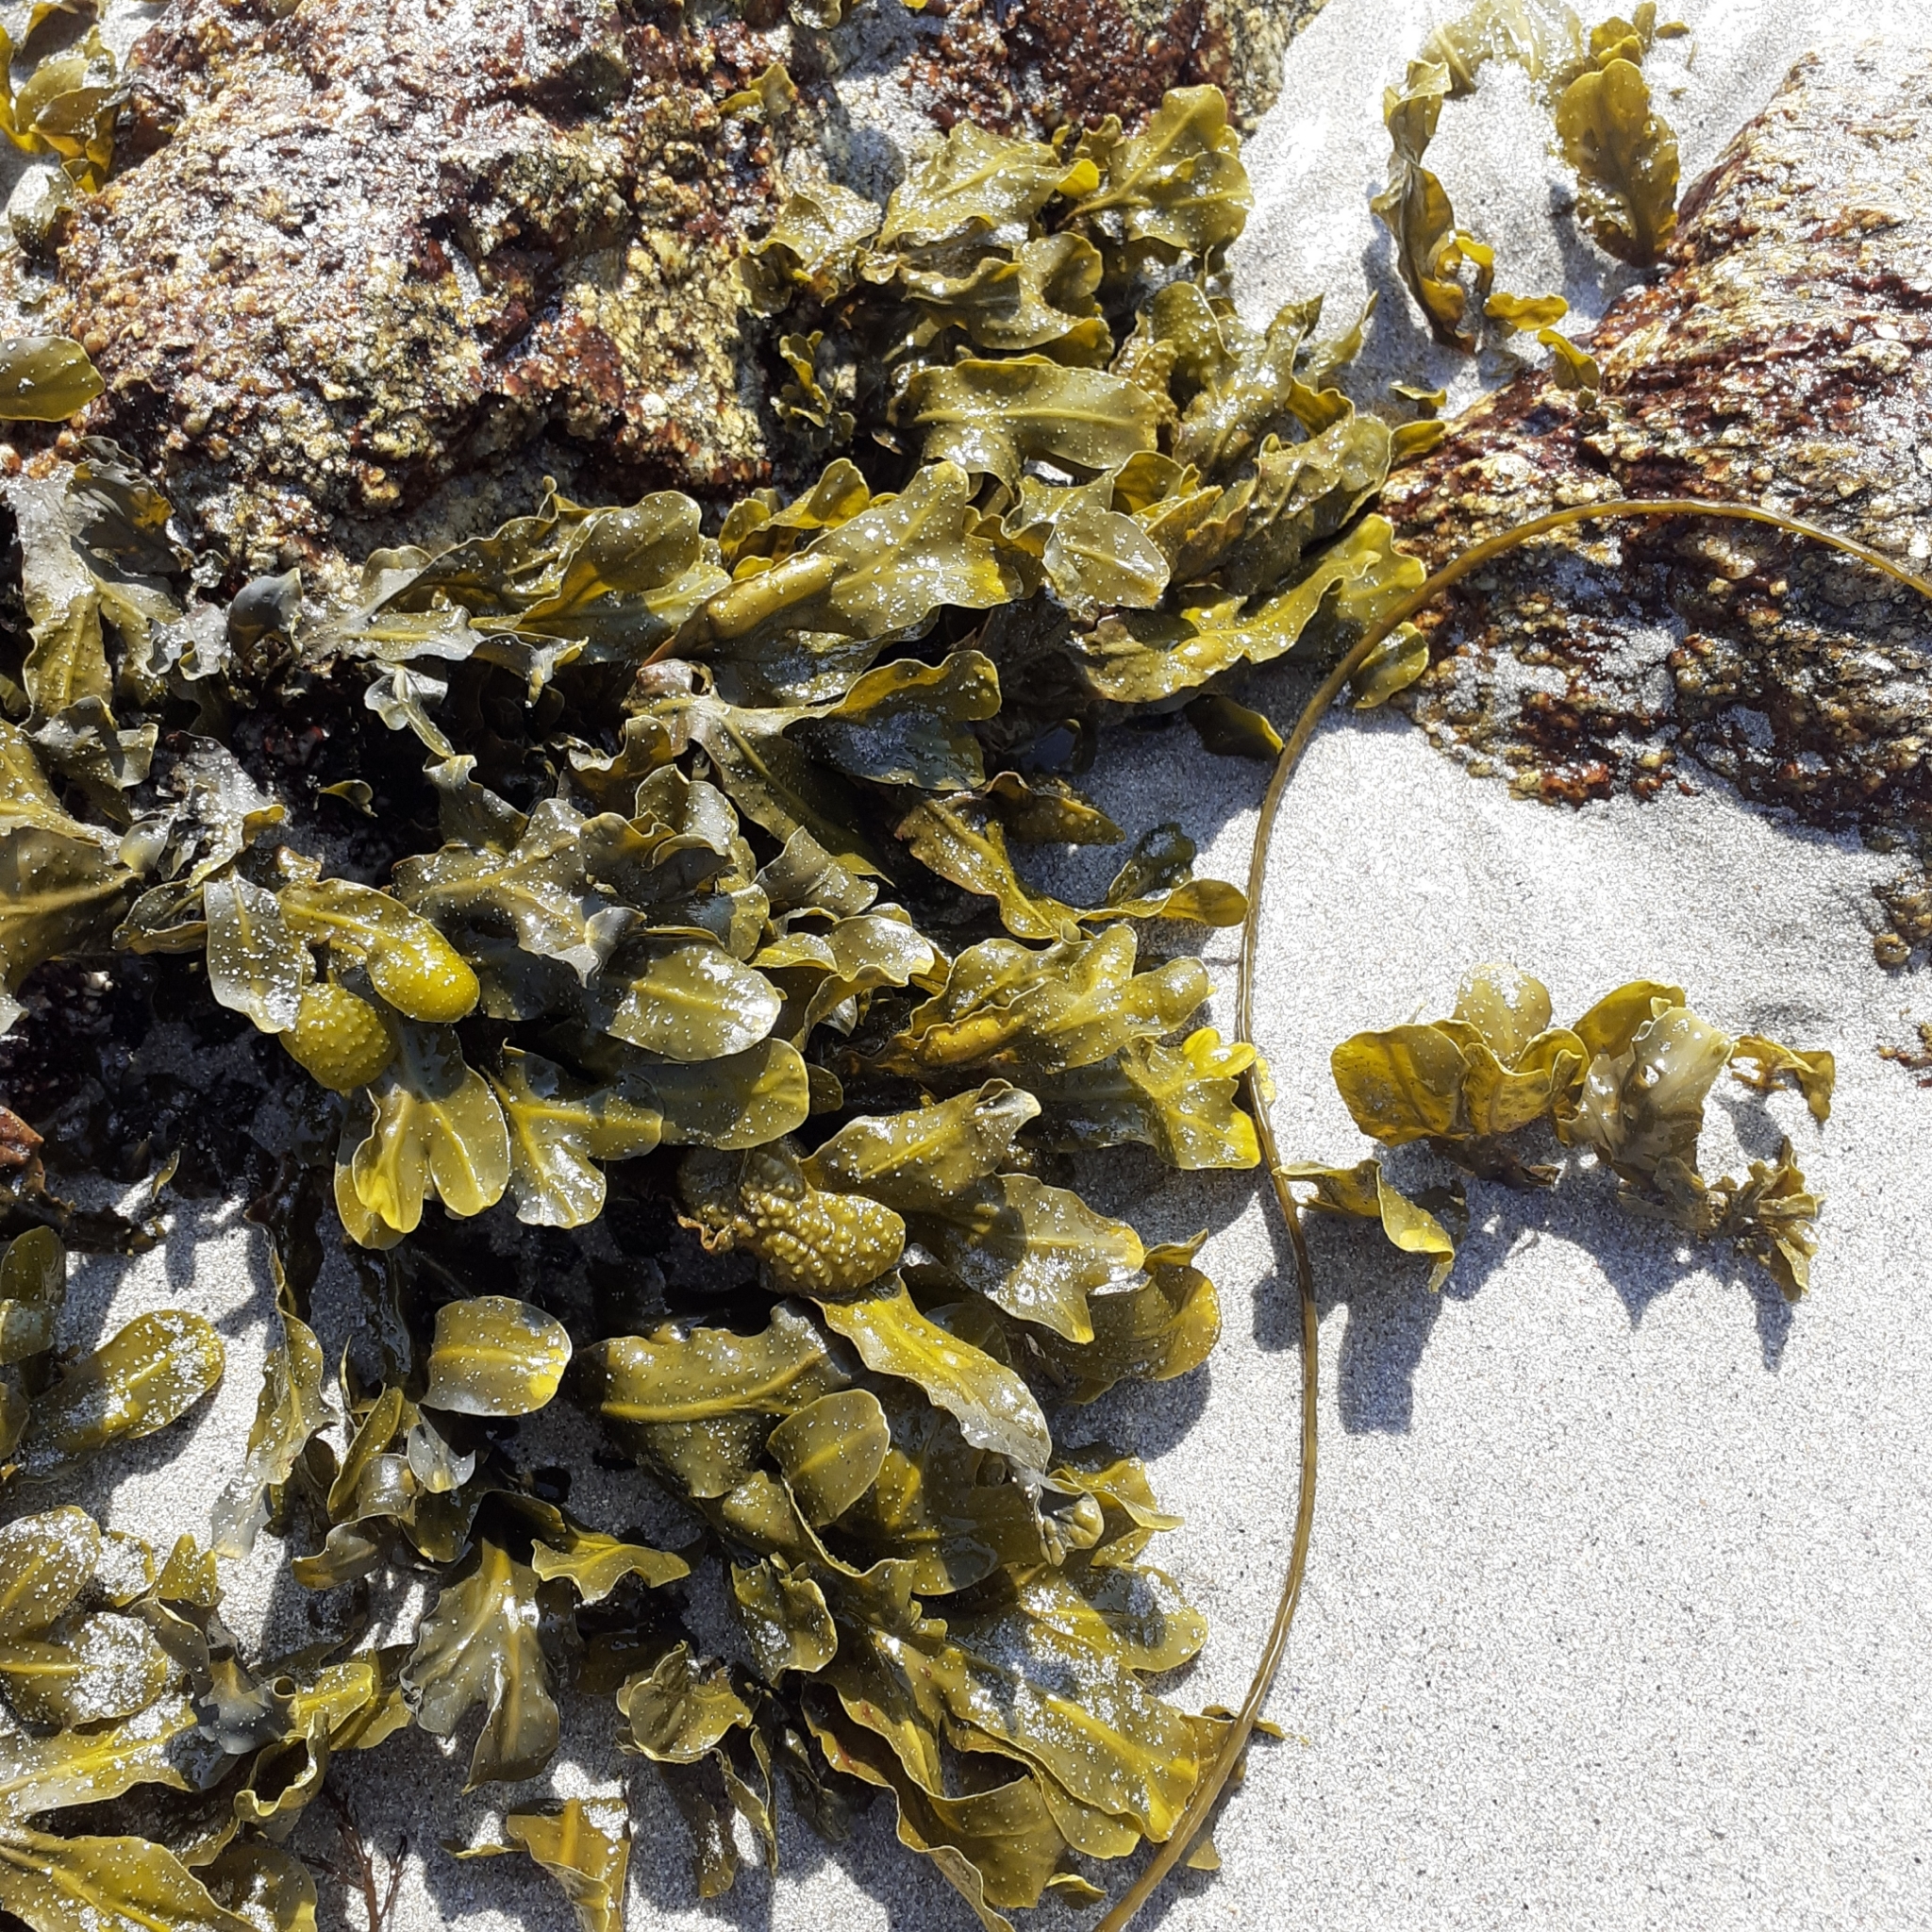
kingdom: Chromista
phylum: Ochrophyta
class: Phaeophyceae
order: Fucales
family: Fucaceae
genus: Fucus
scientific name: Fucus spiralis
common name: Spiral wrack
